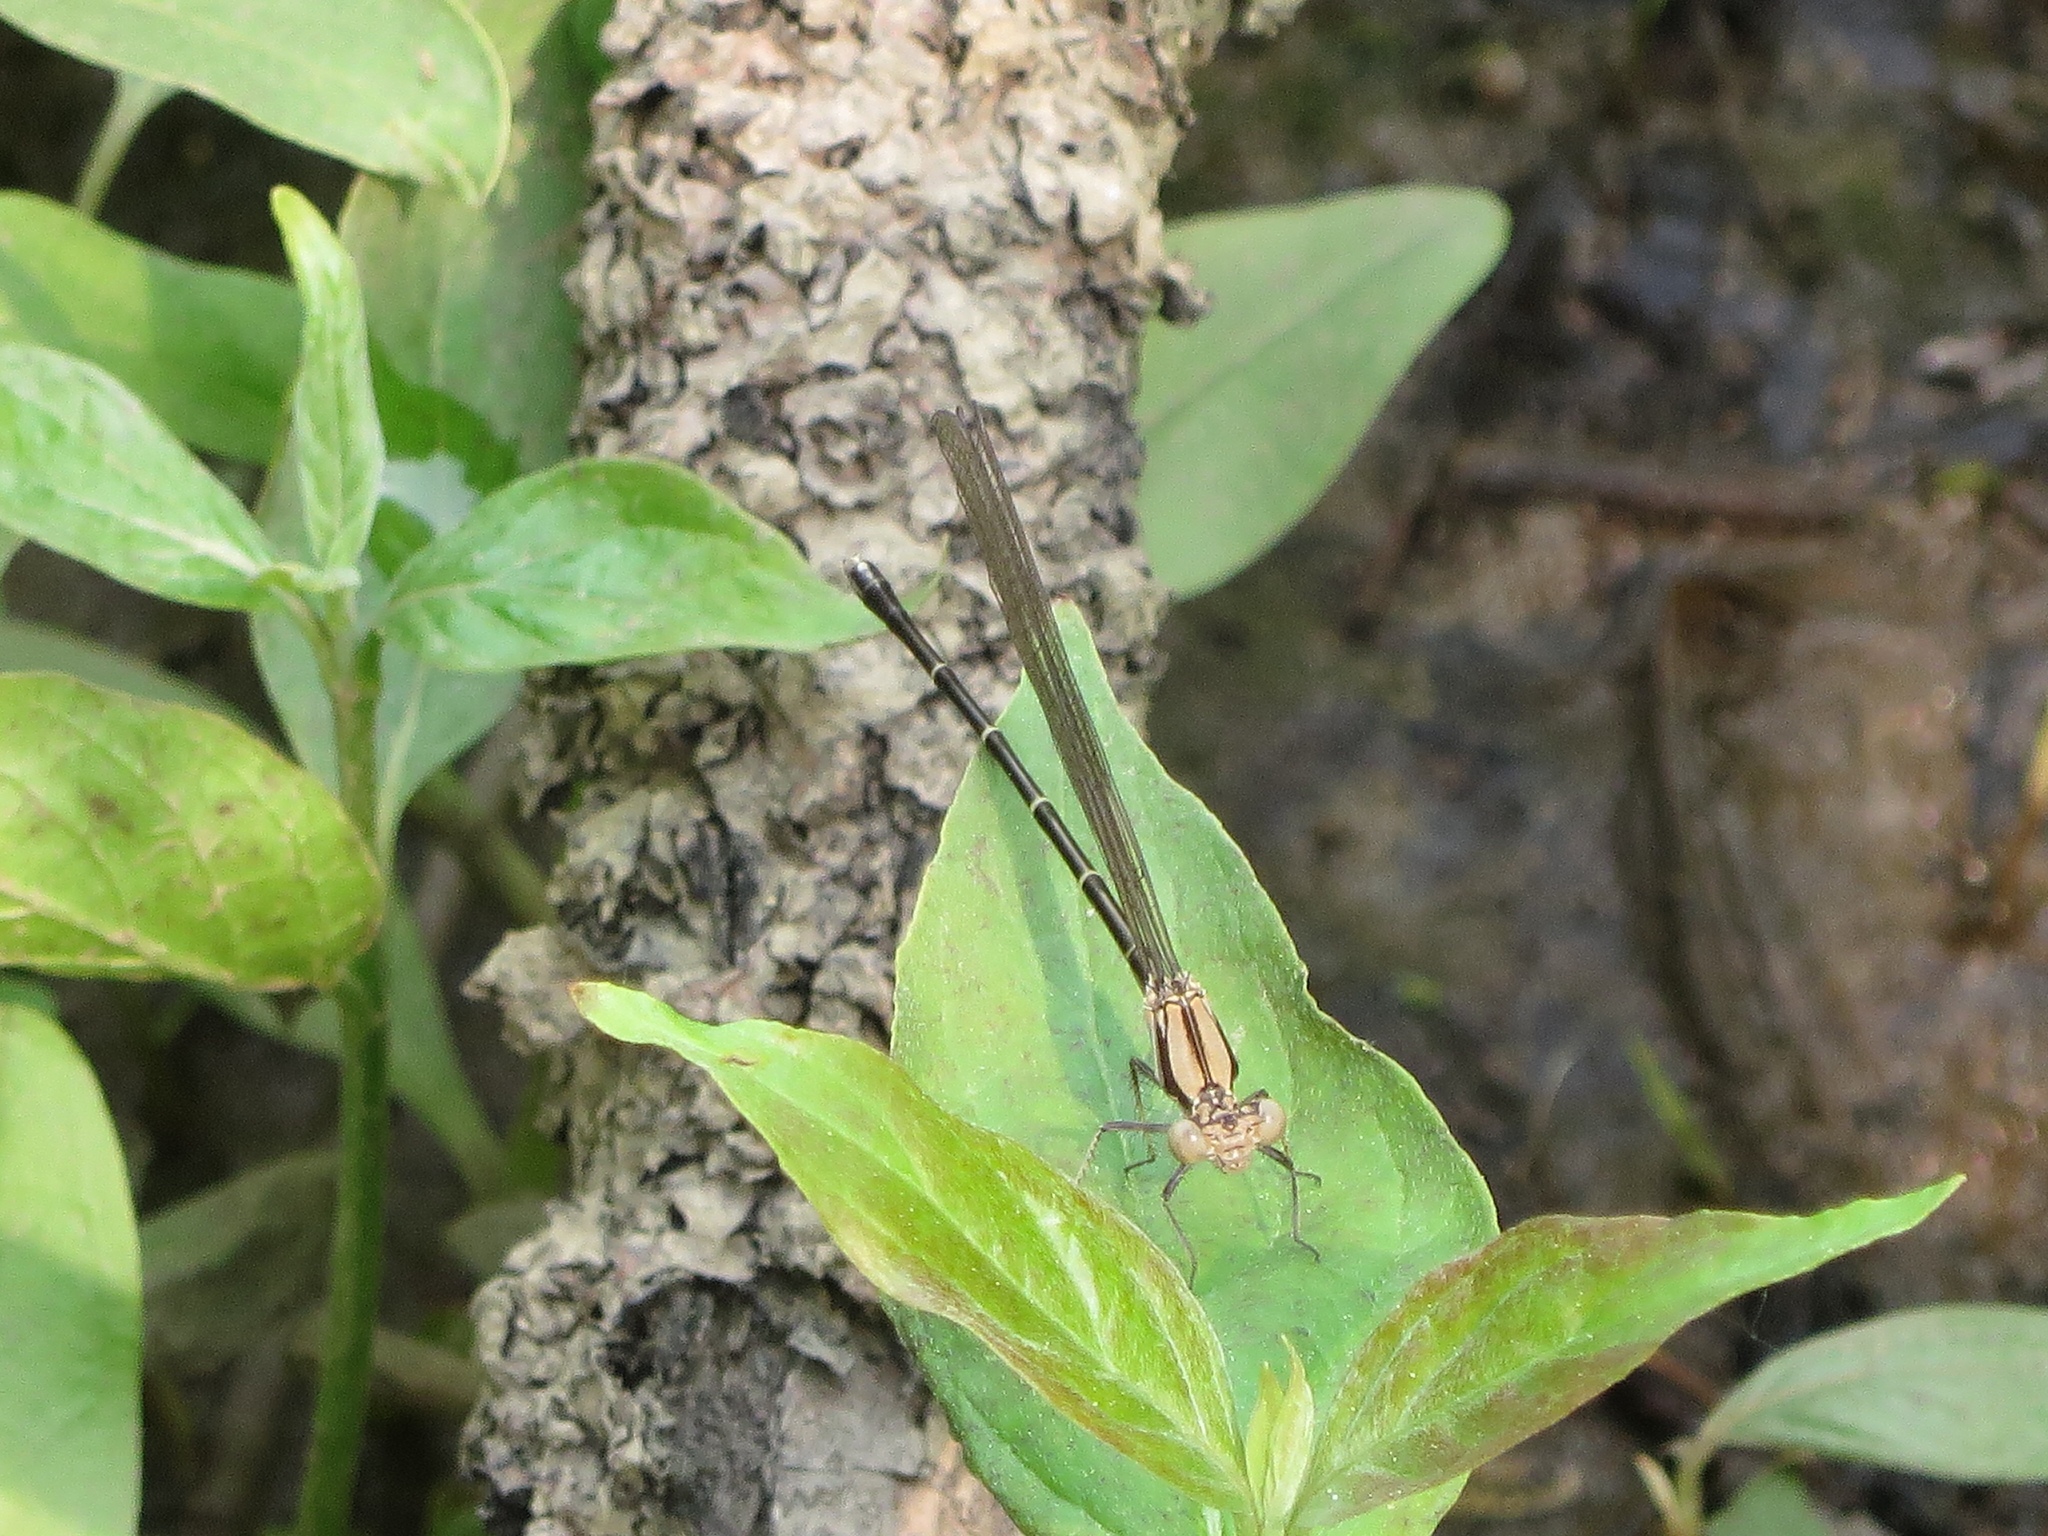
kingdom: Animalia
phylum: Arthropoda
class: Insecta
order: Odonata
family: Coenagrionidae
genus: Argia
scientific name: Argia tibialis
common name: Blue-tipped dancer
